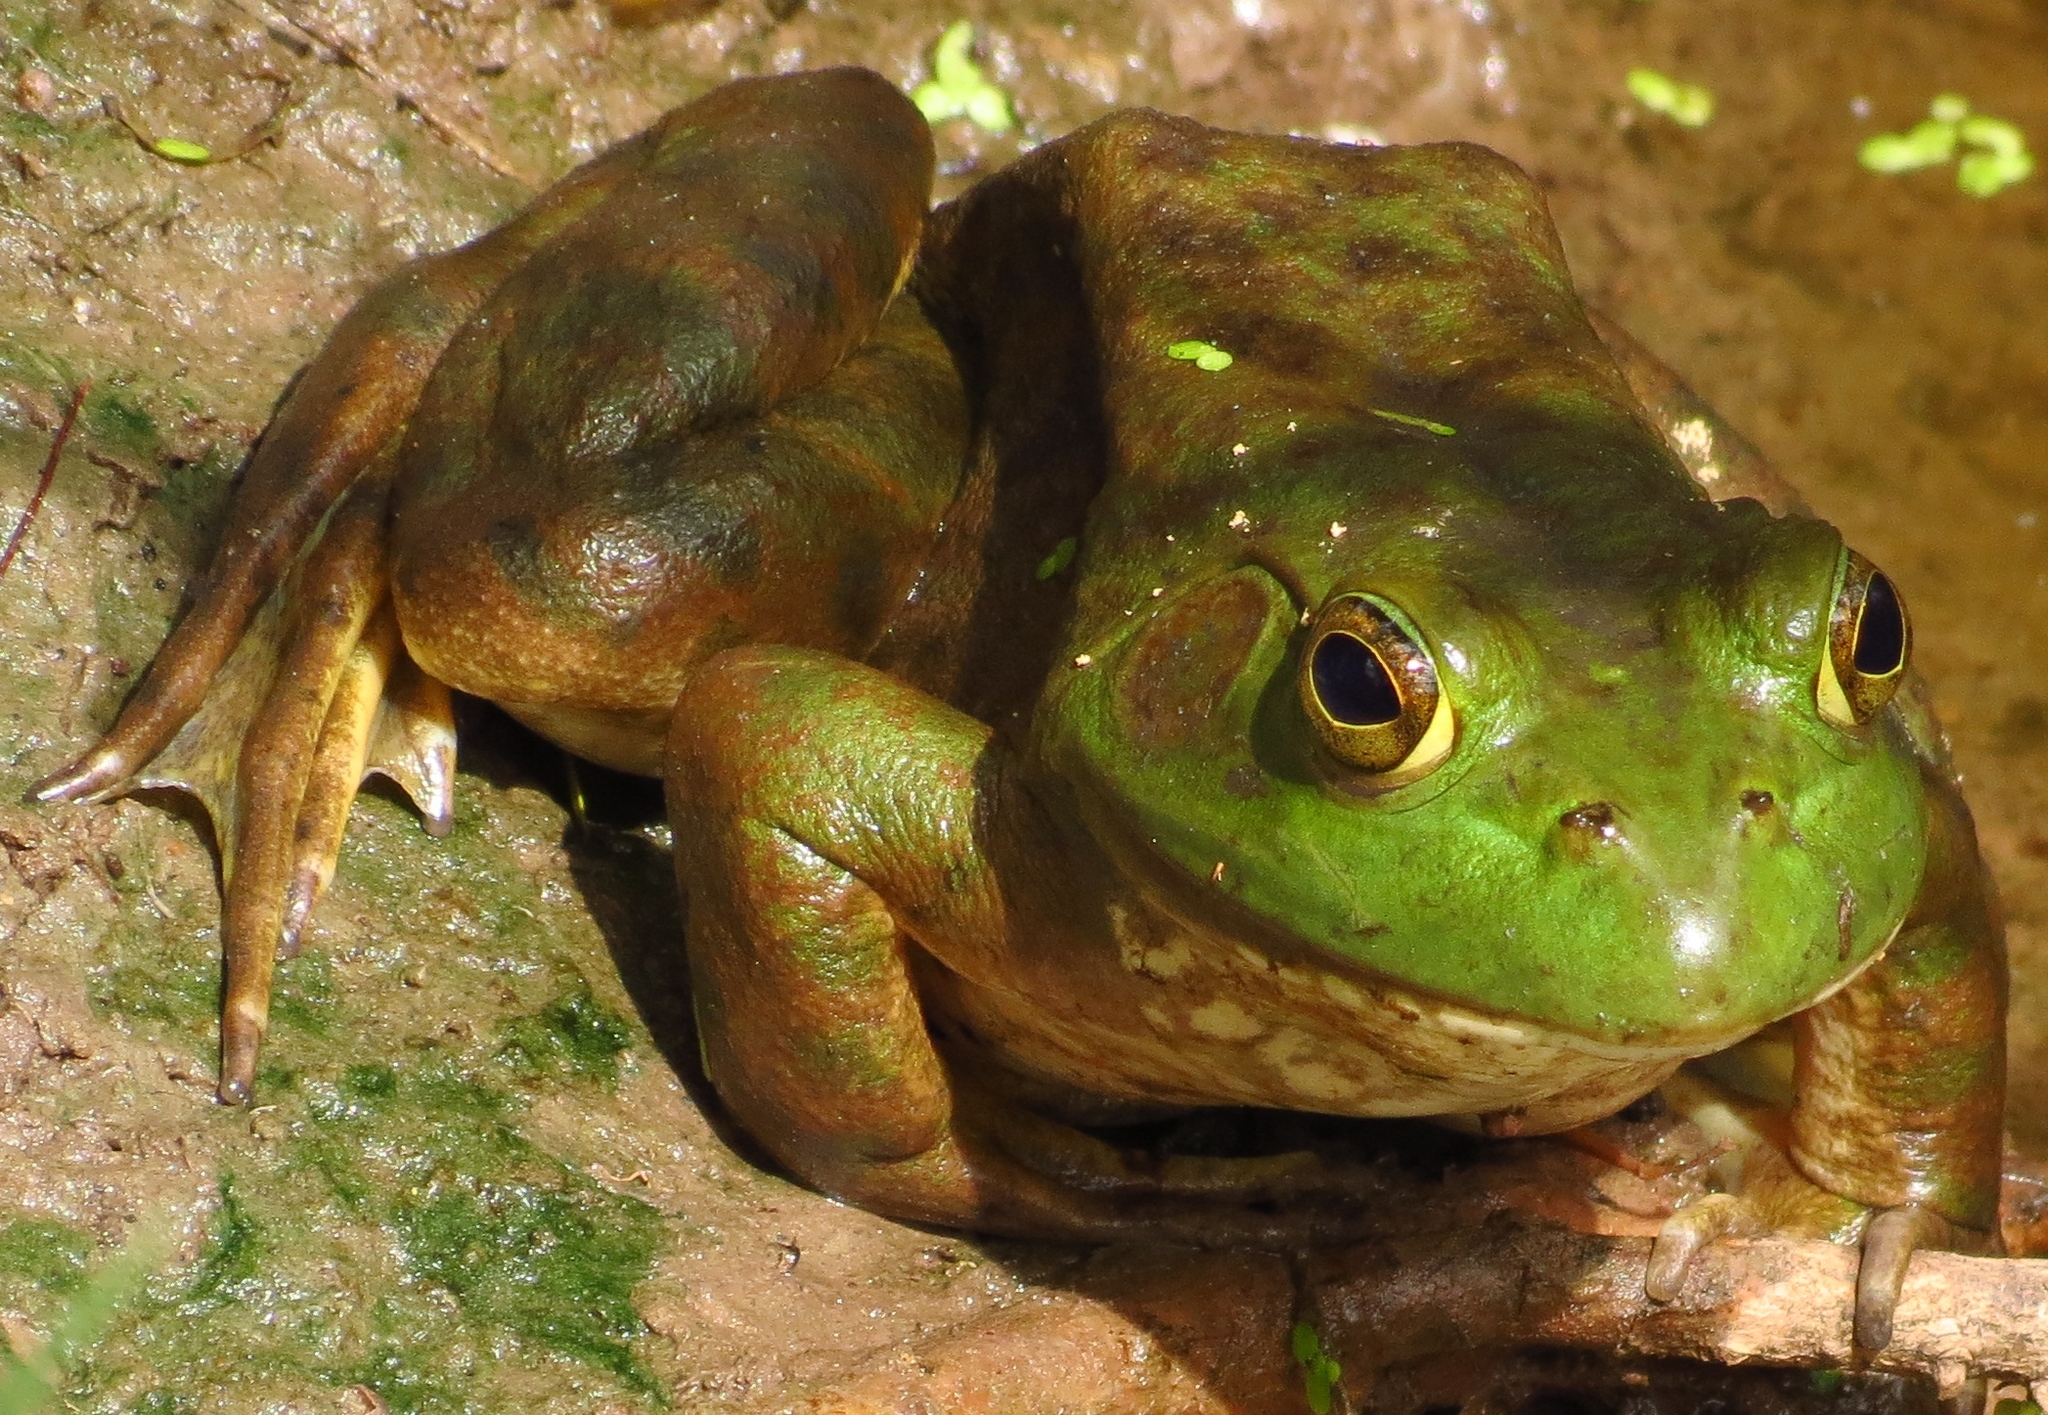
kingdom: Animalia
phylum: Chordata
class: Amphibia
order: Anura
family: Ranidae
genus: Lithobates
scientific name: Lithobates catesbeianus
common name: American bullfrog
